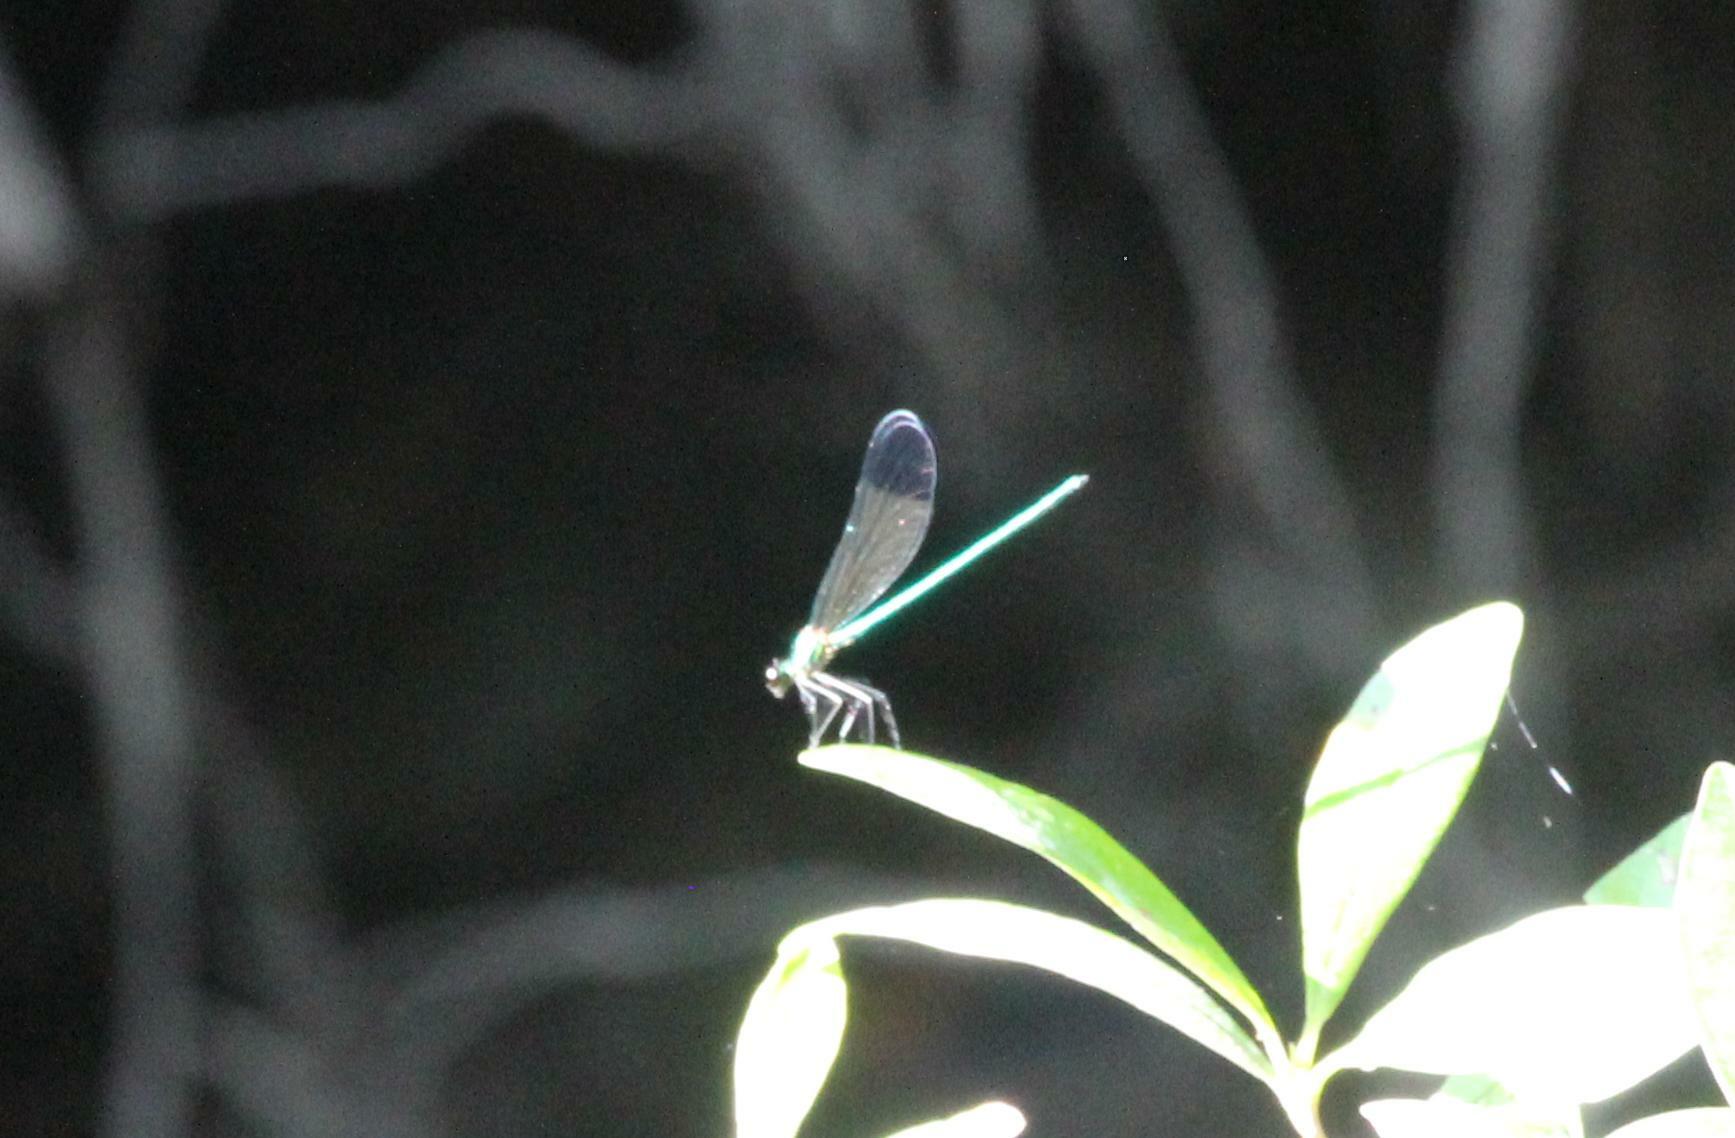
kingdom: Animalia
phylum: Arthropoda
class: Insecta
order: Odonata
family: Calopterygidae
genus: Calopteryx
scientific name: Calopteryx dimidiata
